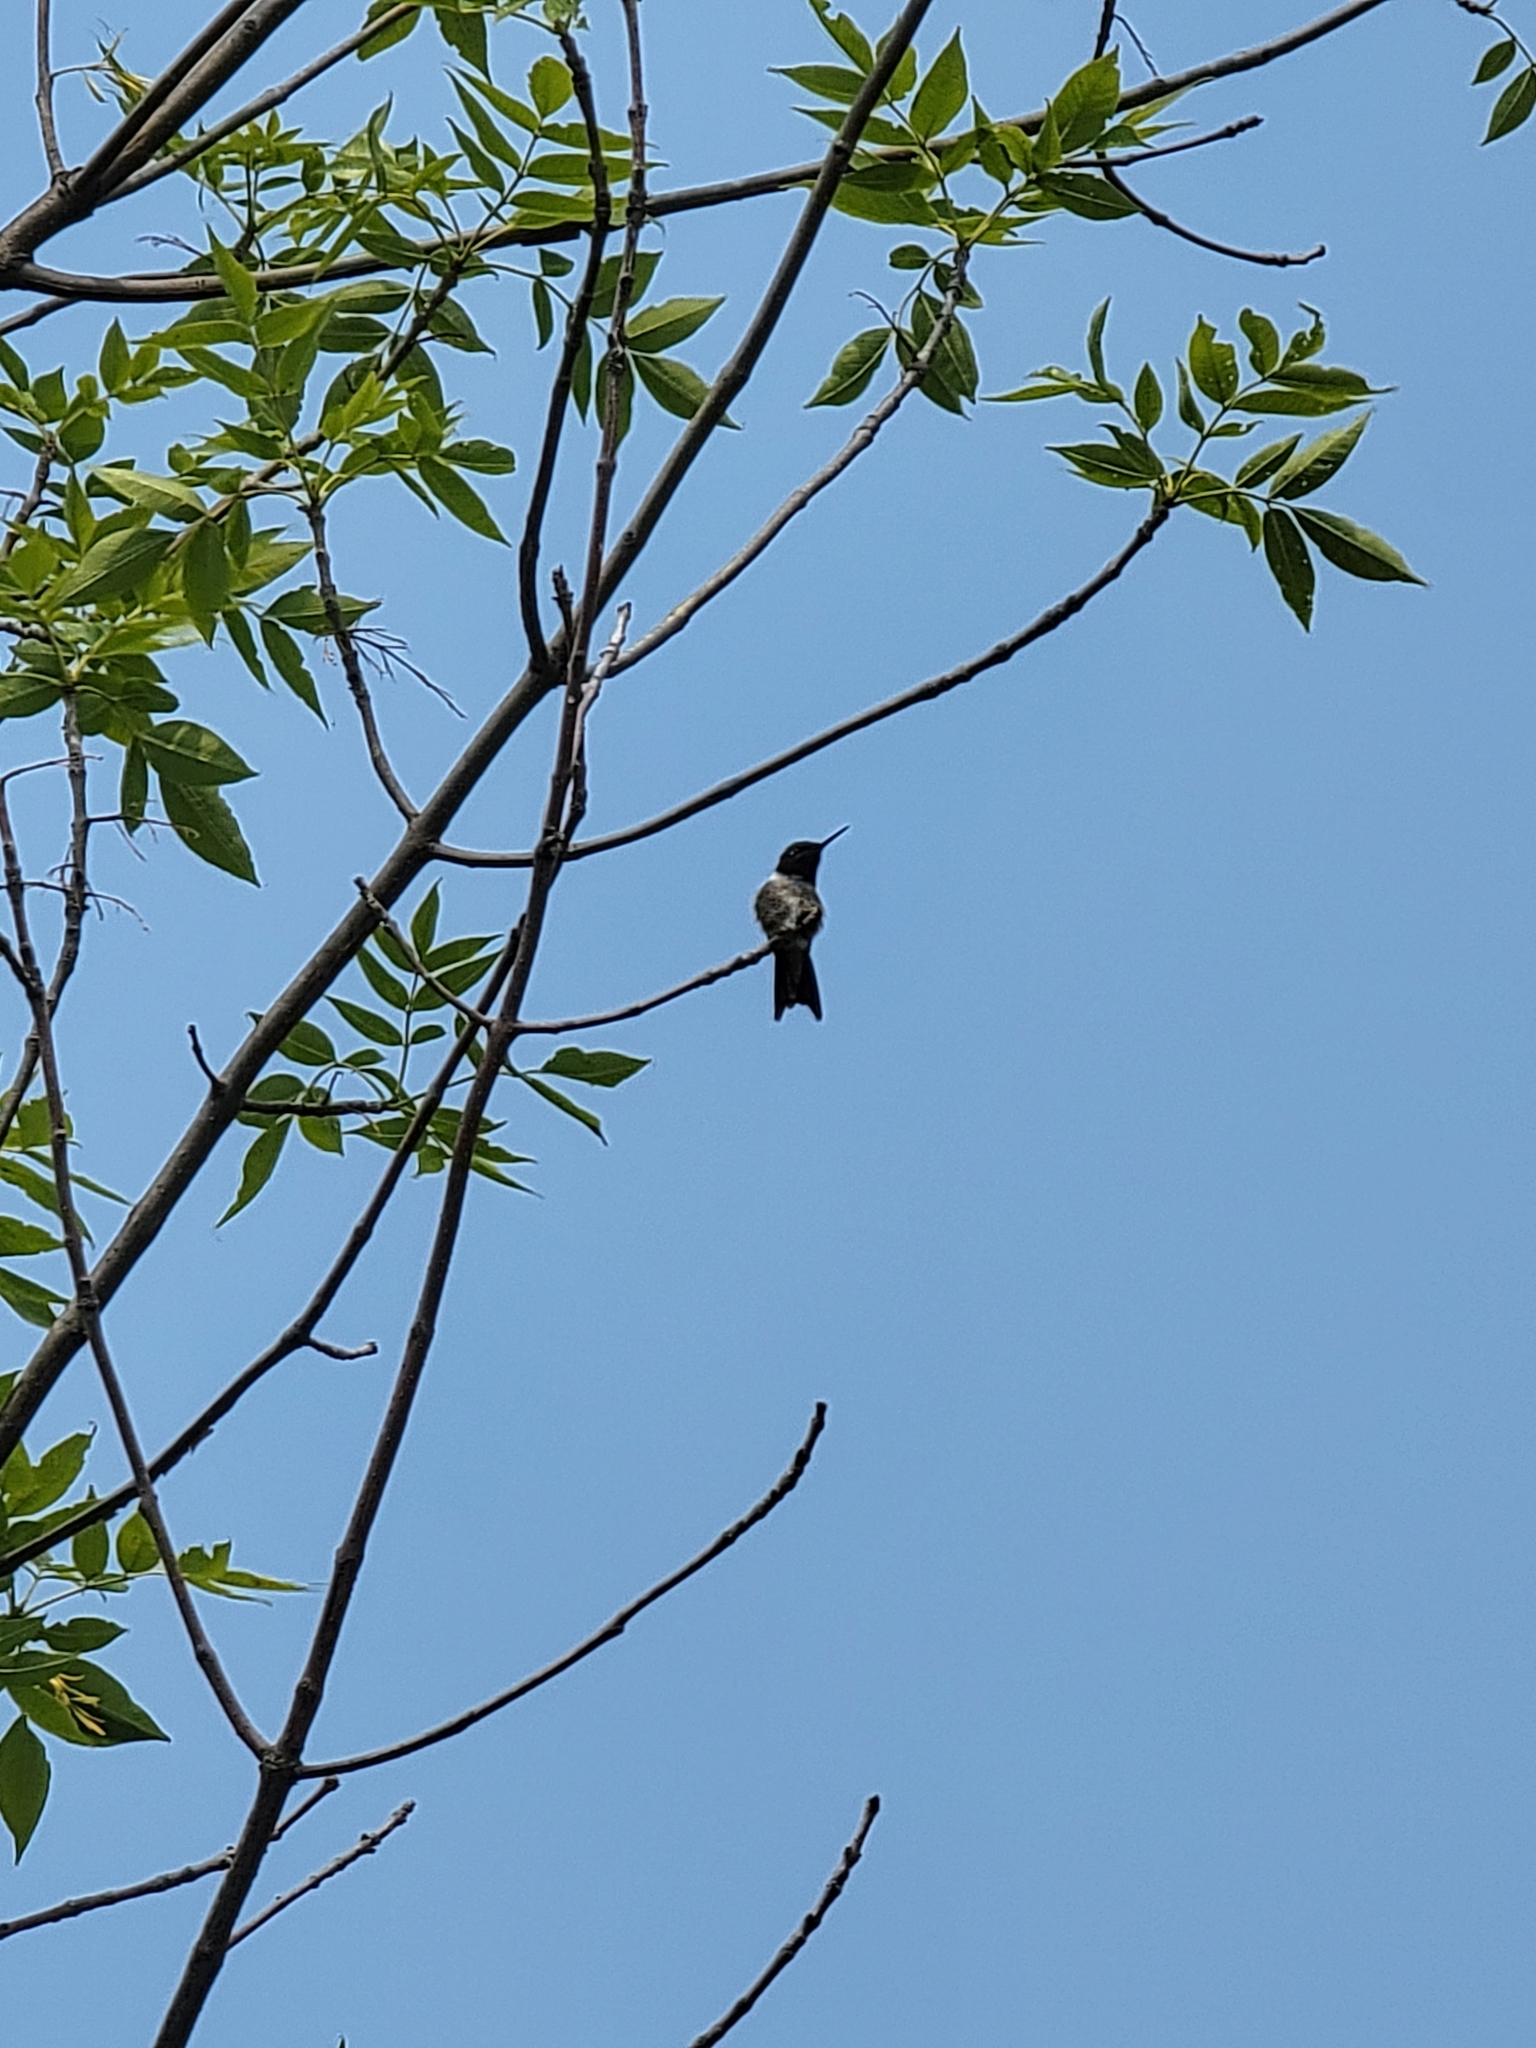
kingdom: Animalia
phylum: Chordata
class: Aves
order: Apodiformes
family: Trochilidae
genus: Archilochus
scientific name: Archilochus colubris
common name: Ruby-throated hummingbird
